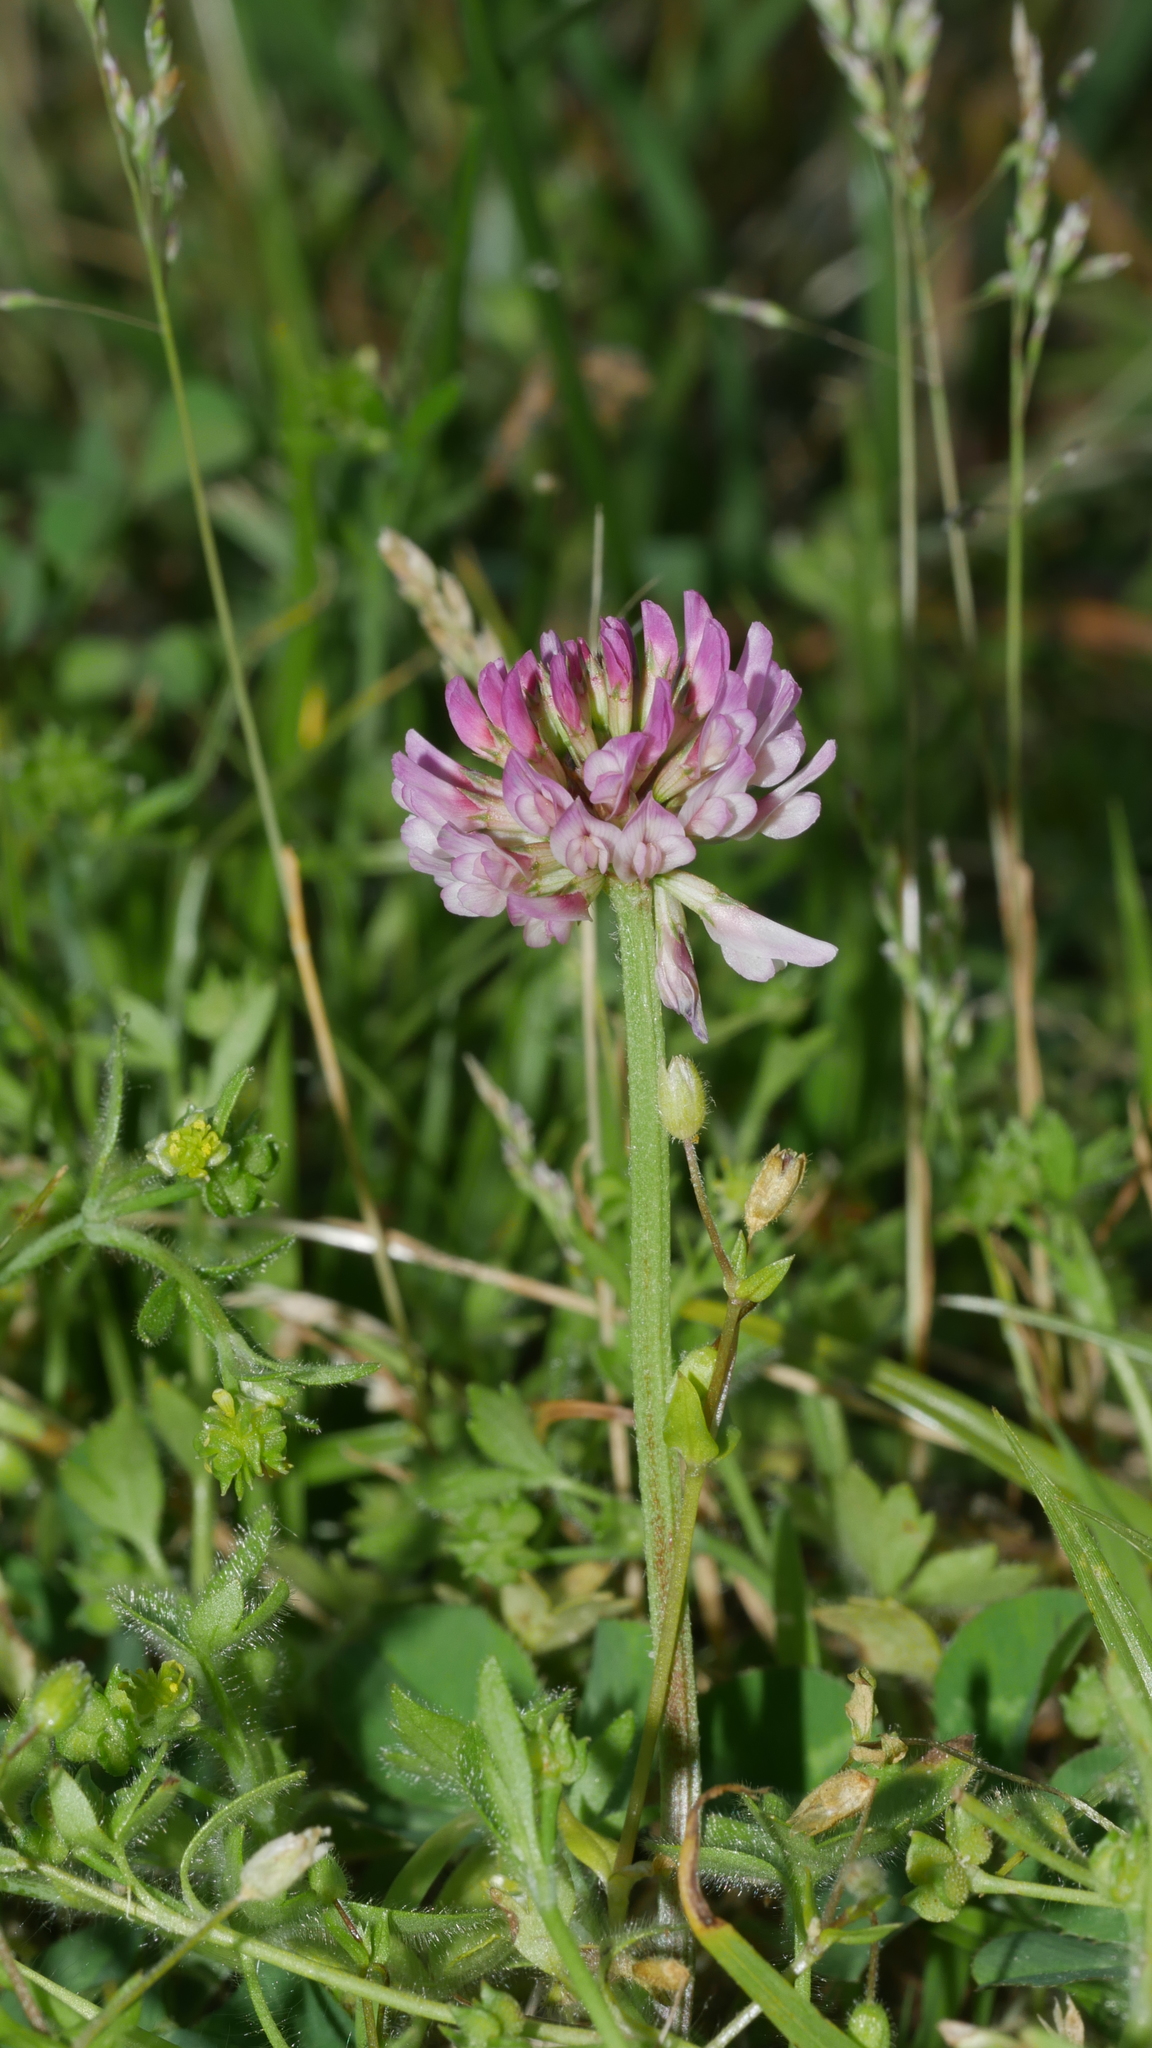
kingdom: Plantae
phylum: Tracheophyta
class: Magnoliopsida
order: Fabales
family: Fabaceae
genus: Trifolium
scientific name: Trifolium repens
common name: White clover
